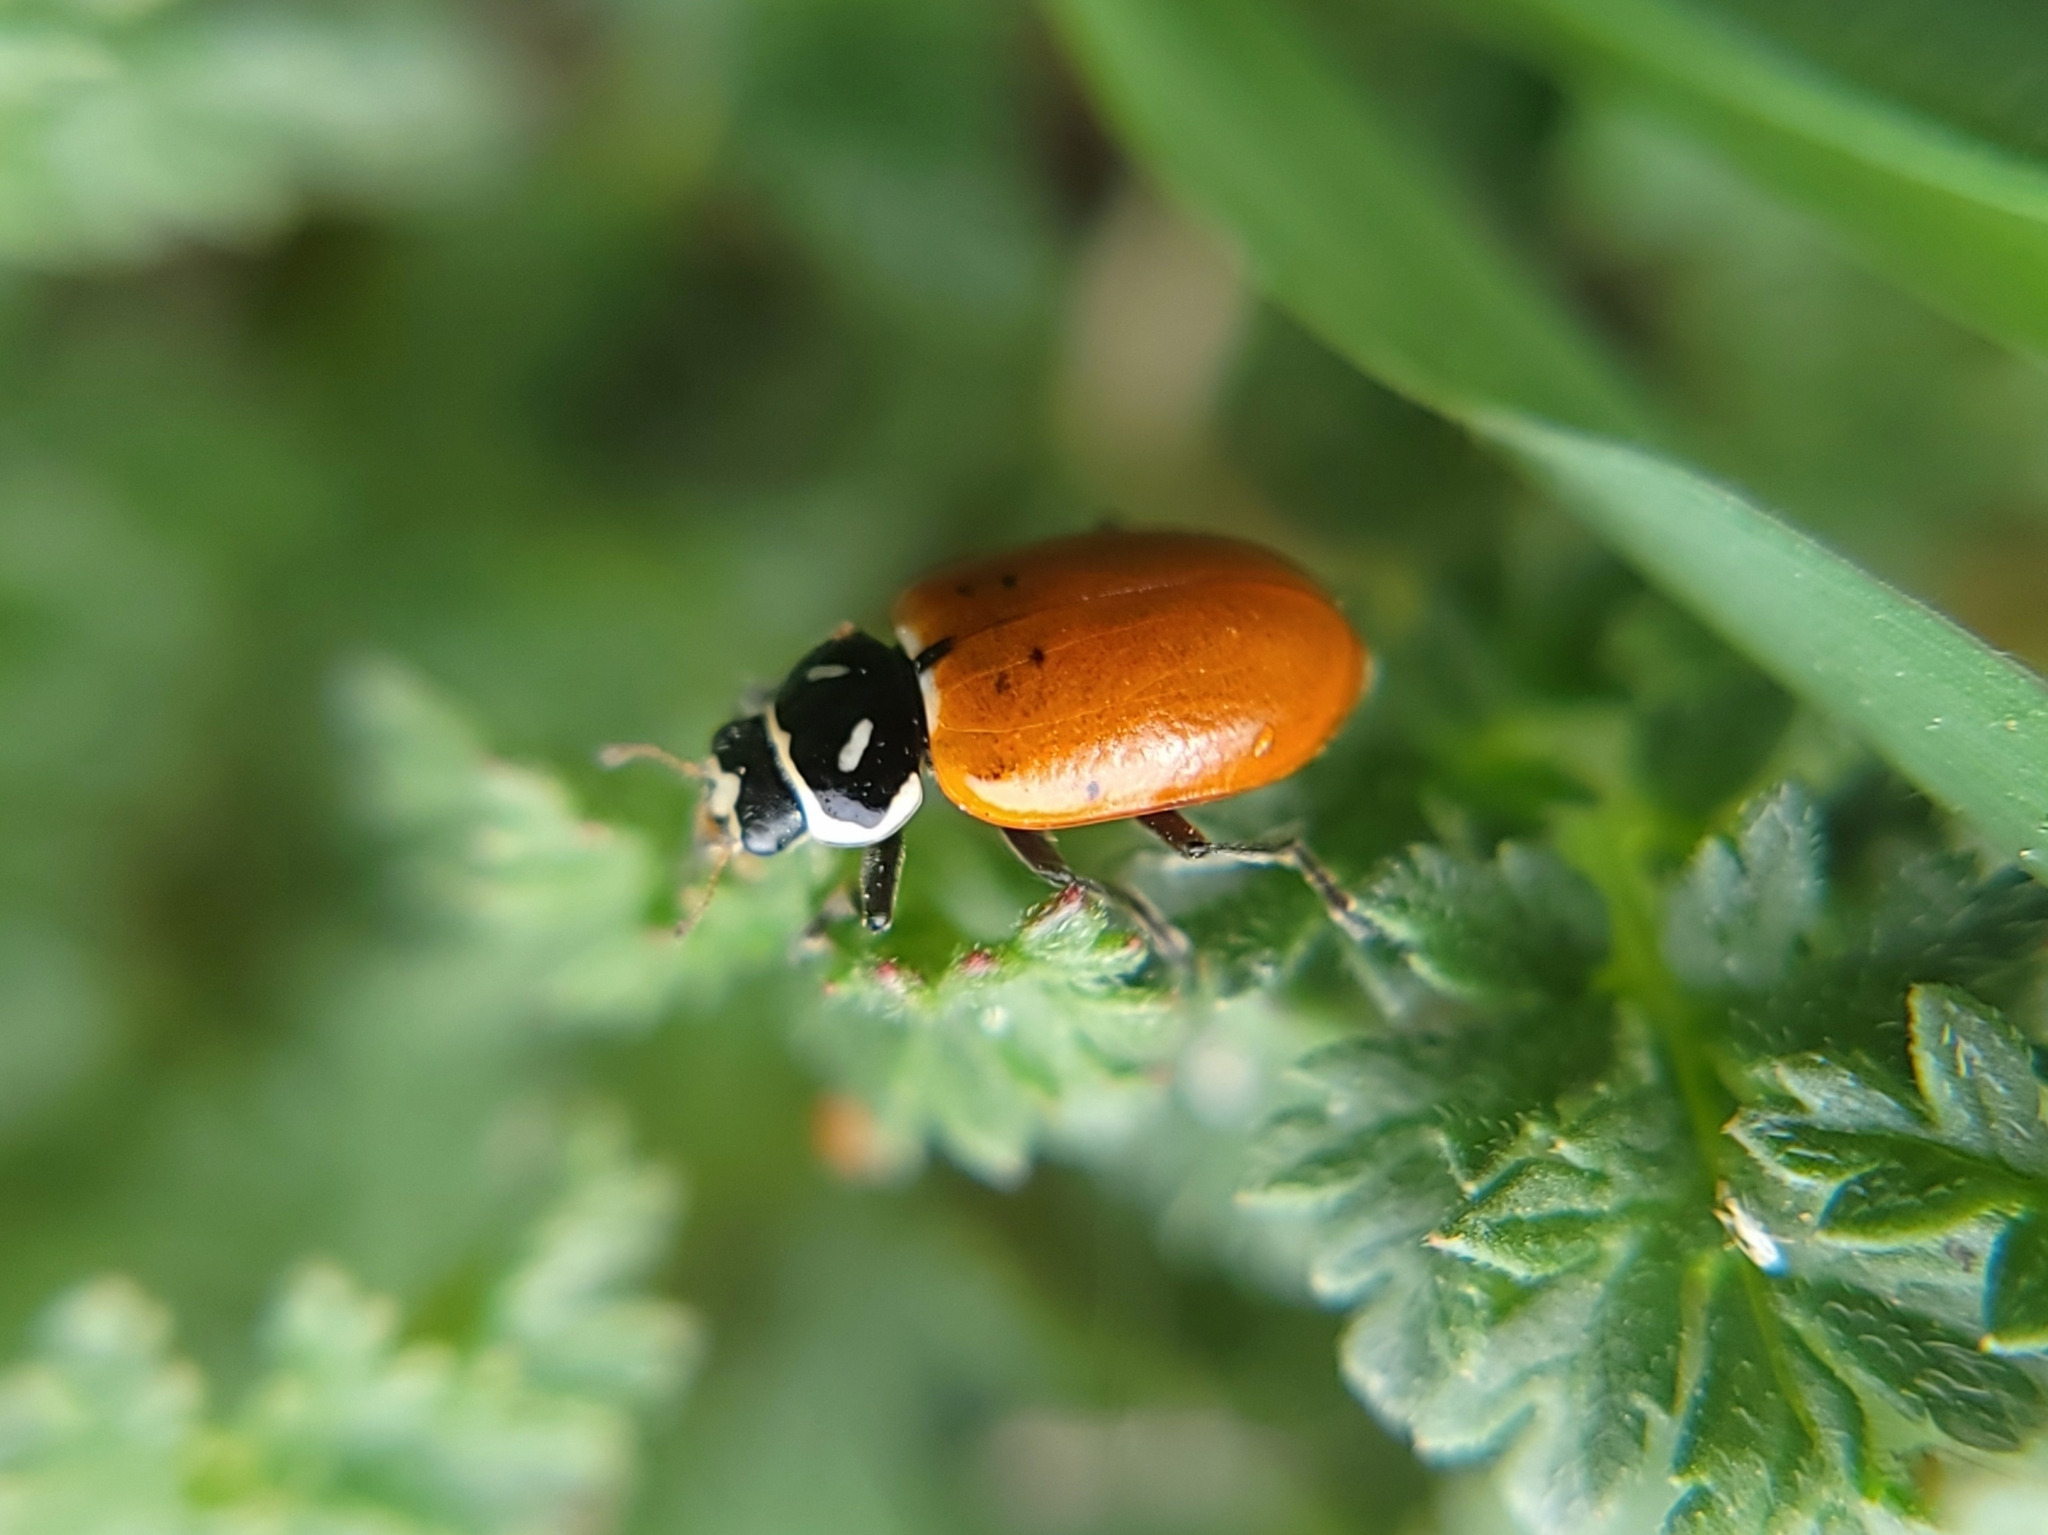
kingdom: Animalia
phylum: Arthropoda
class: Insecta
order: Coleoptera
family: Coccinellidae
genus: Hippodamia
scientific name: Hippodamia convergens
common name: Convergent lady beetle
